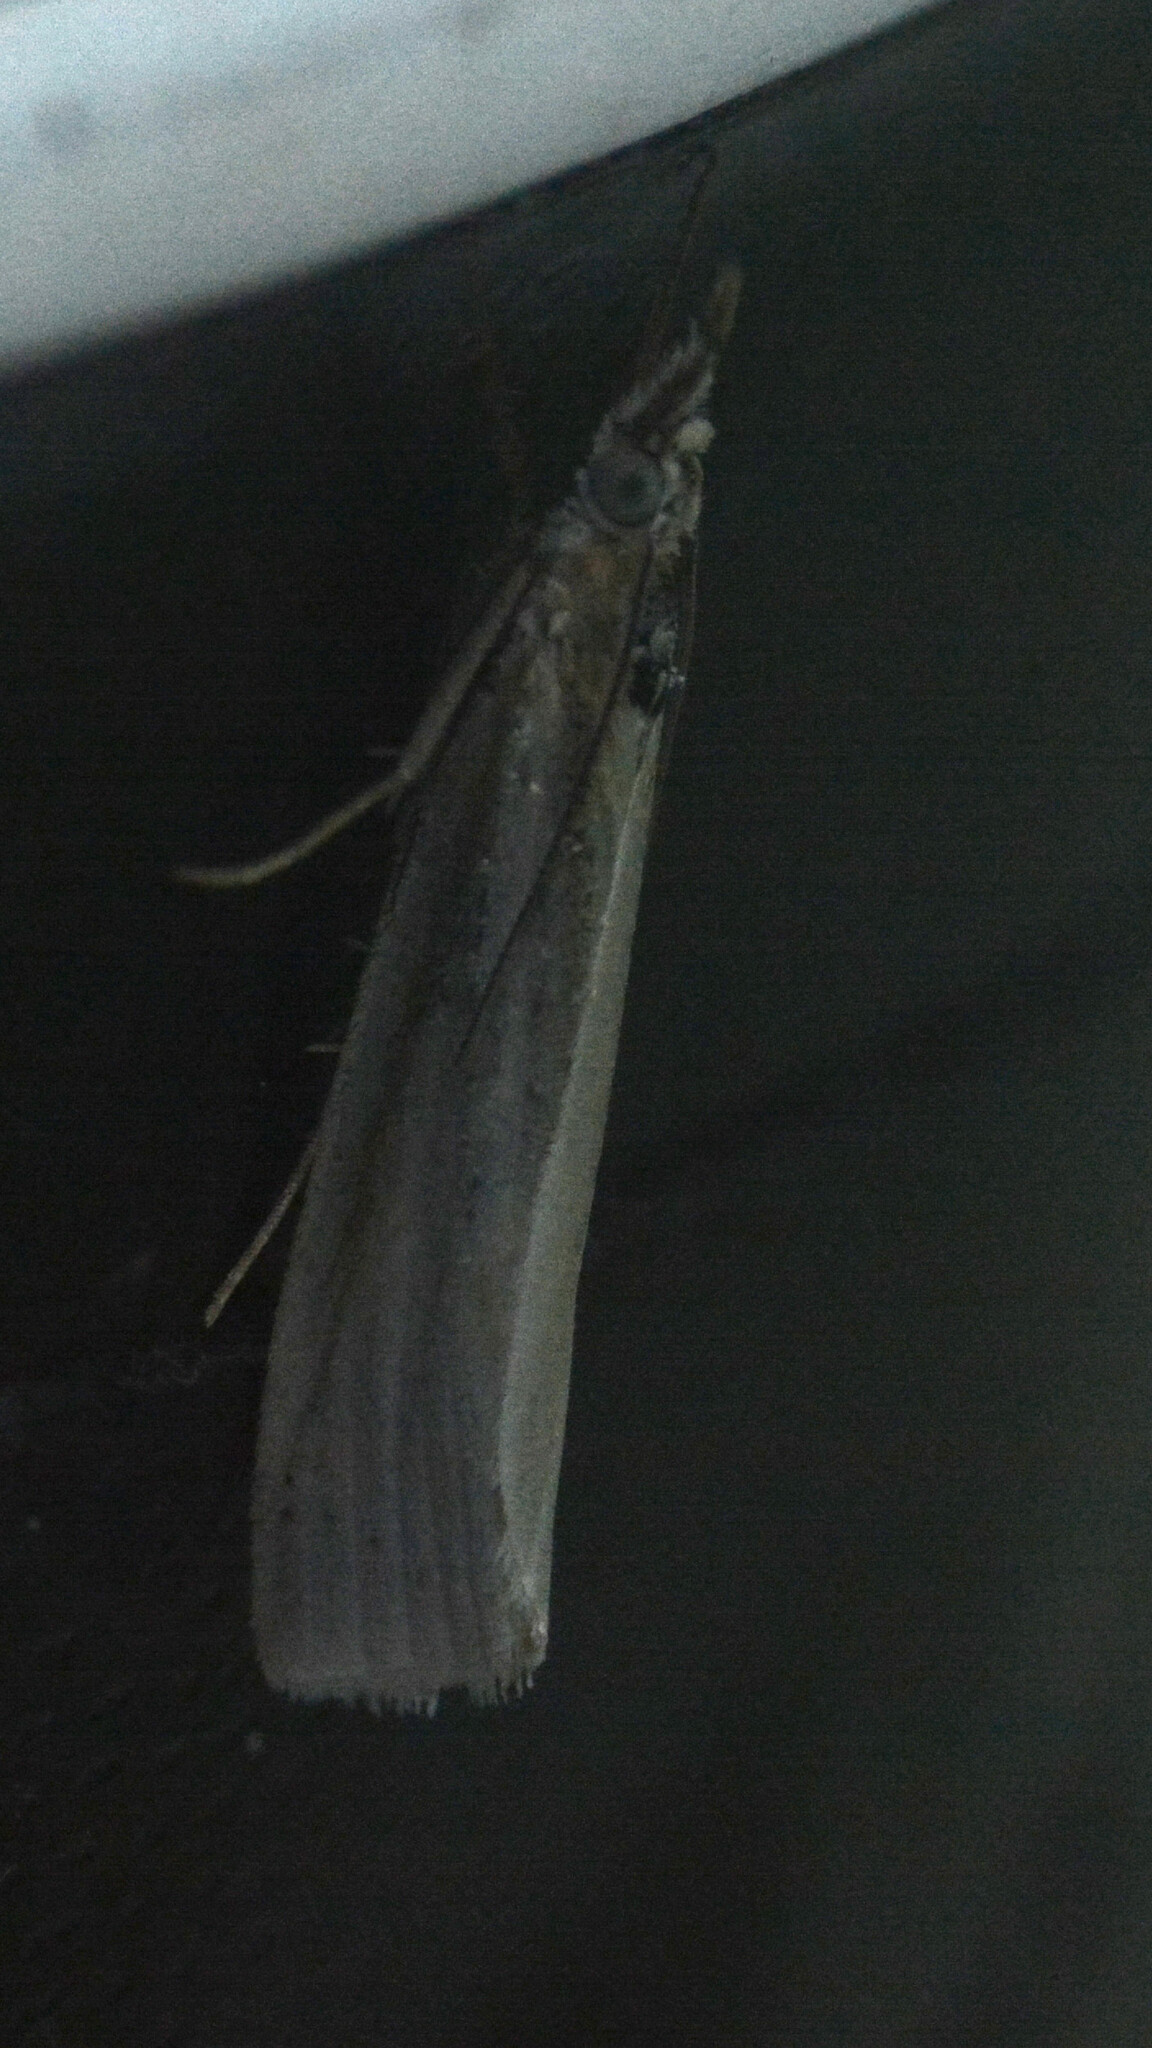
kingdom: Animalia
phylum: Arthropoda
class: Insecta
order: Lepidoptera
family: Crambidae
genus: Crambus
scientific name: Crambus perlellus
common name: Yellow satin veneer
